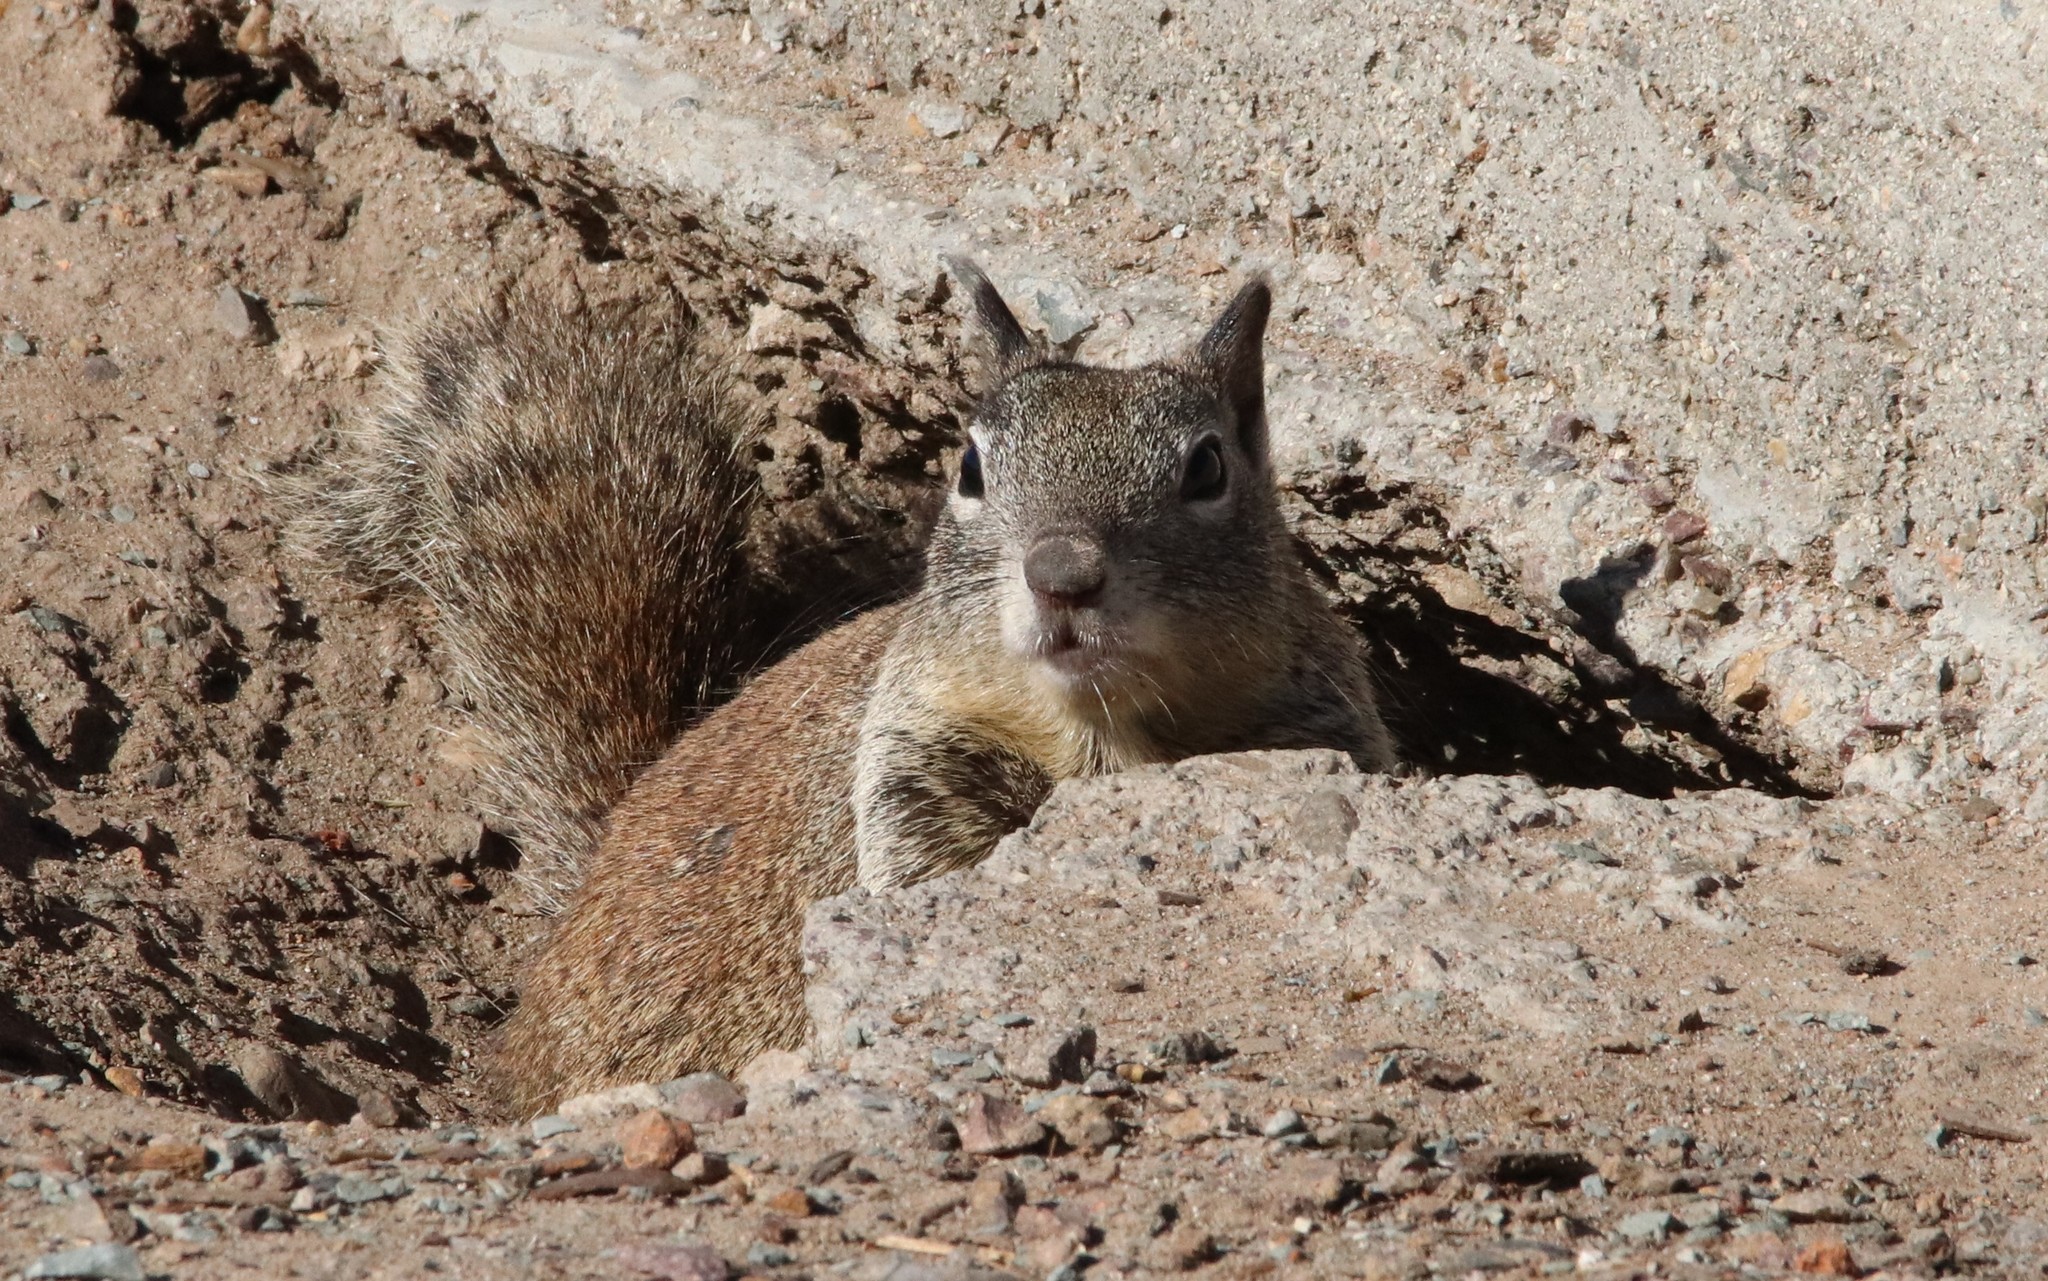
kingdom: Animalia
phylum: Chordata
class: Mammalia
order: Rodentia
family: Sciuridae
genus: Otospermophilus
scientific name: Otospermophilus beecheyi
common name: California ground squirrel
